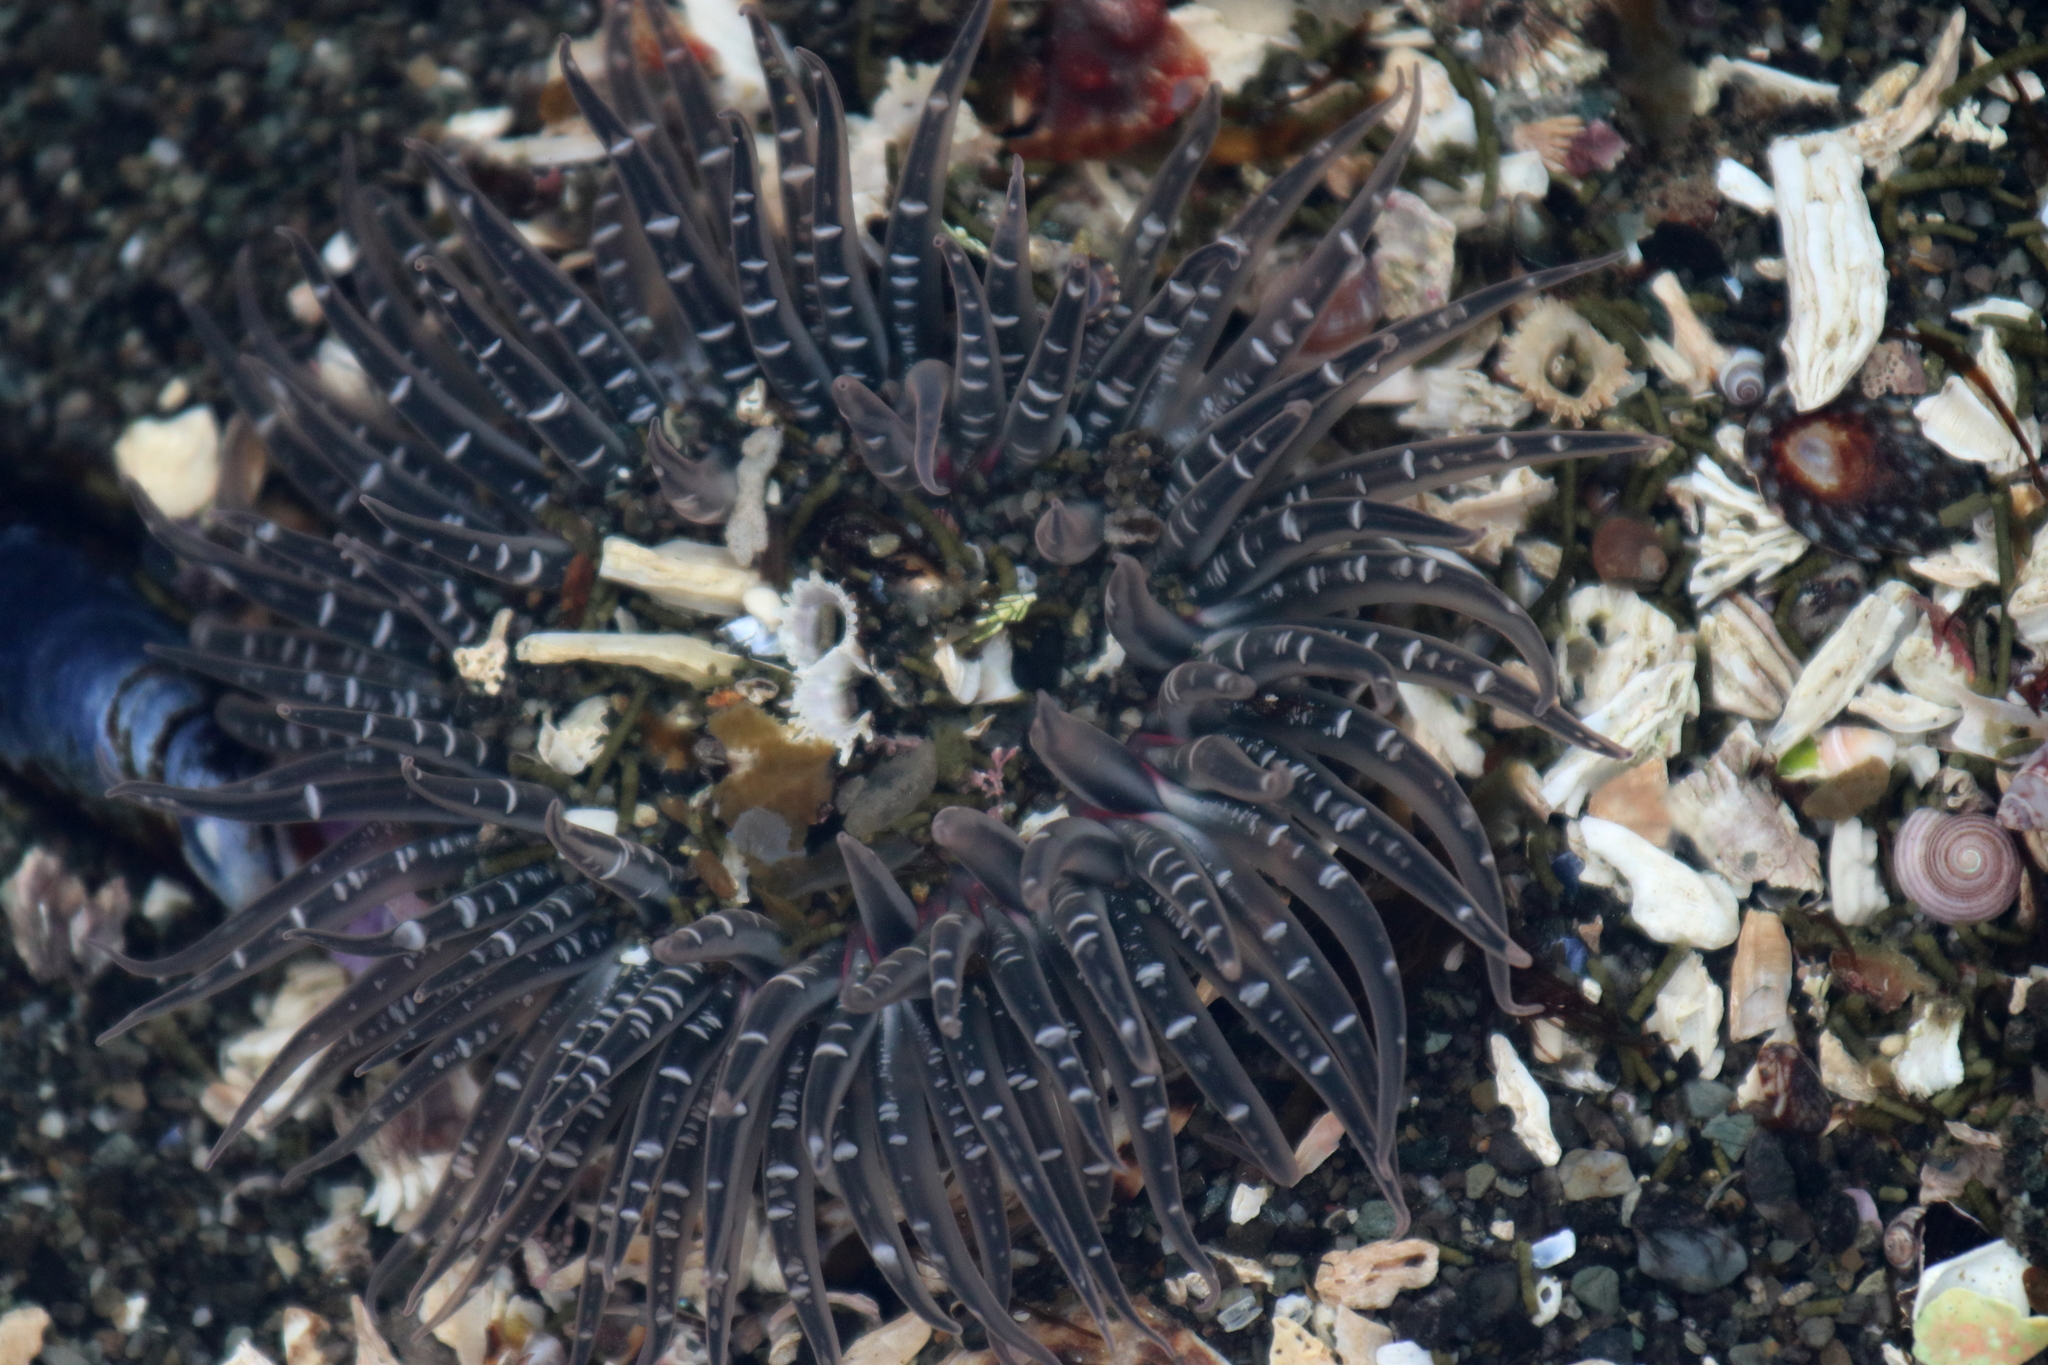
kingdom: Animalia
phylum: Cnidaria
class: Anthozoa
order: Actiniaria
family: Actiniidae
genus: Anthopleura
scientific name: Anthopleura artemisia
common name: Buried sea anemone
